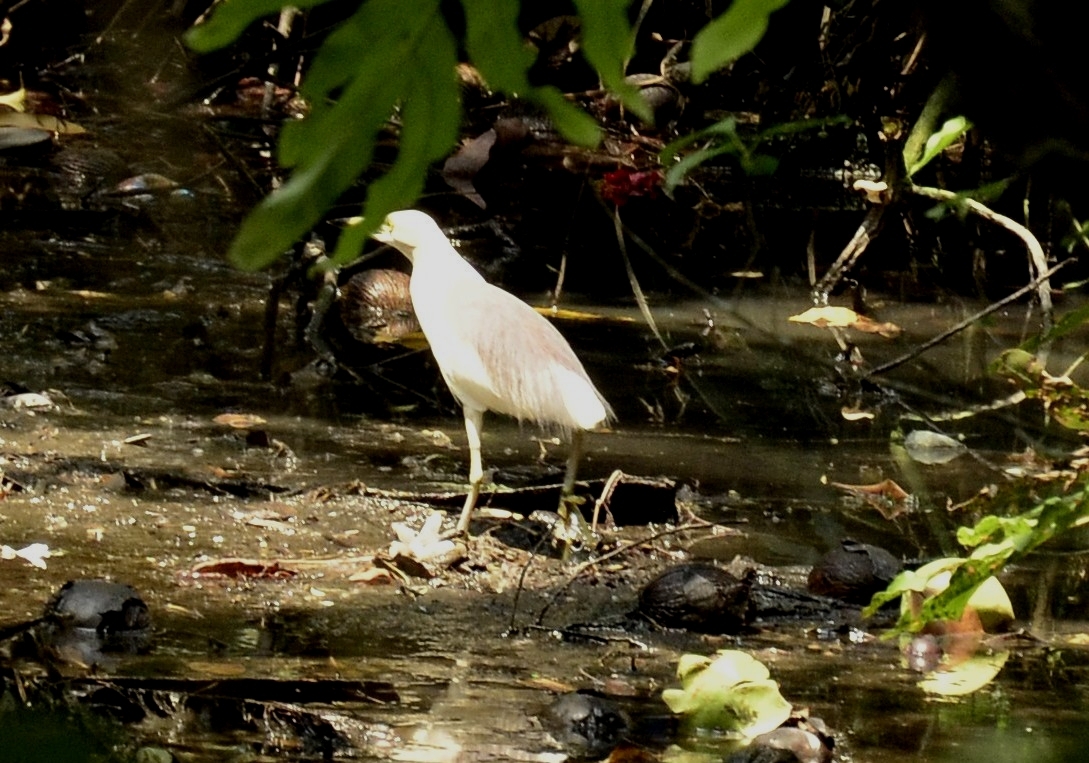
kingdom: Animalia
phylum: Chordata
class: Aves
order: Pelecaniformes
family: Ardeidae
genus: Ardeola
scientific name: Ardeola grayii
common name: Indian pond heron
